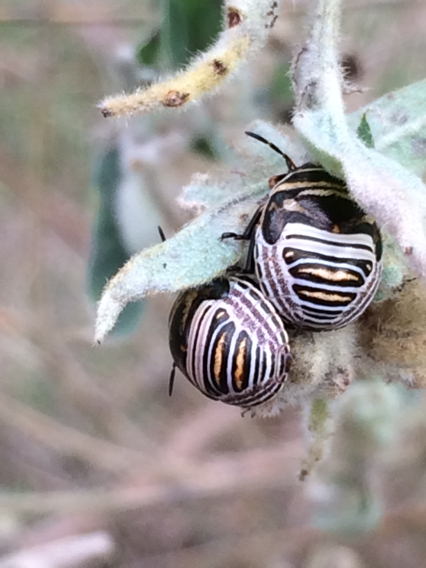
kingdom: Animalia
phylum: Arthropoda
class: Insecta
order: Hemiptera
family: Scutelleridae
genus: Orsilochides
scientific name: Orsilochides guttata
